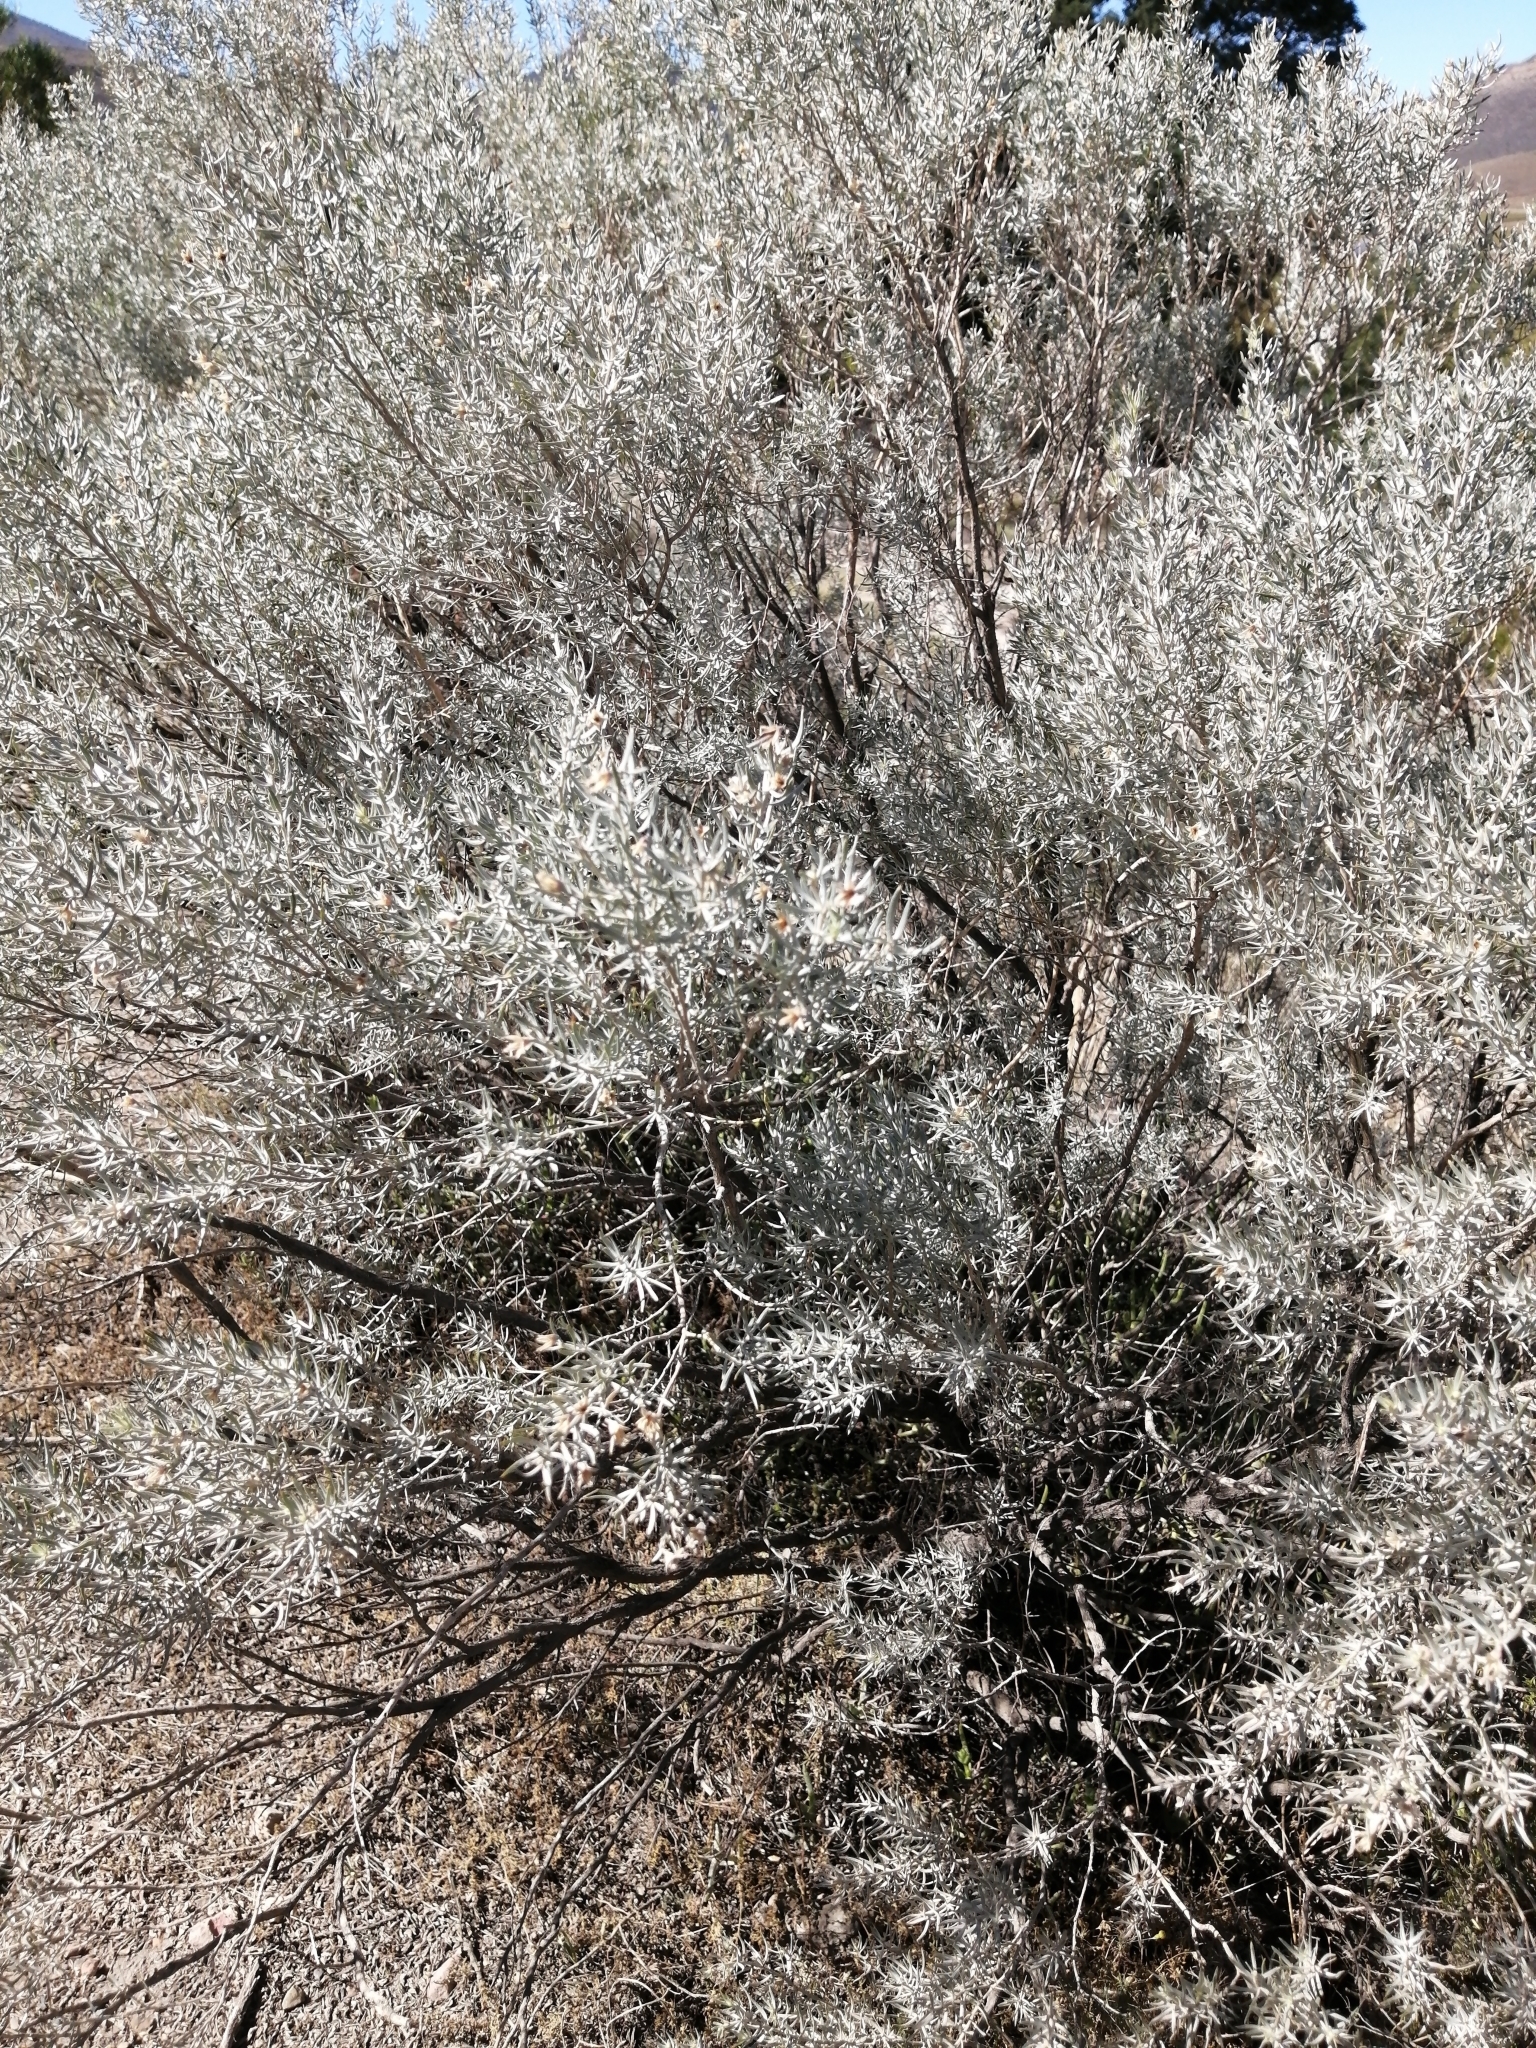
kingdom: Plantae
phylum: Tracheophyta
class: Magnoliopsida
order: Fabales
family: Fabaceae
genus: Aspalathus
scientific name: Aspalathus rugosa
